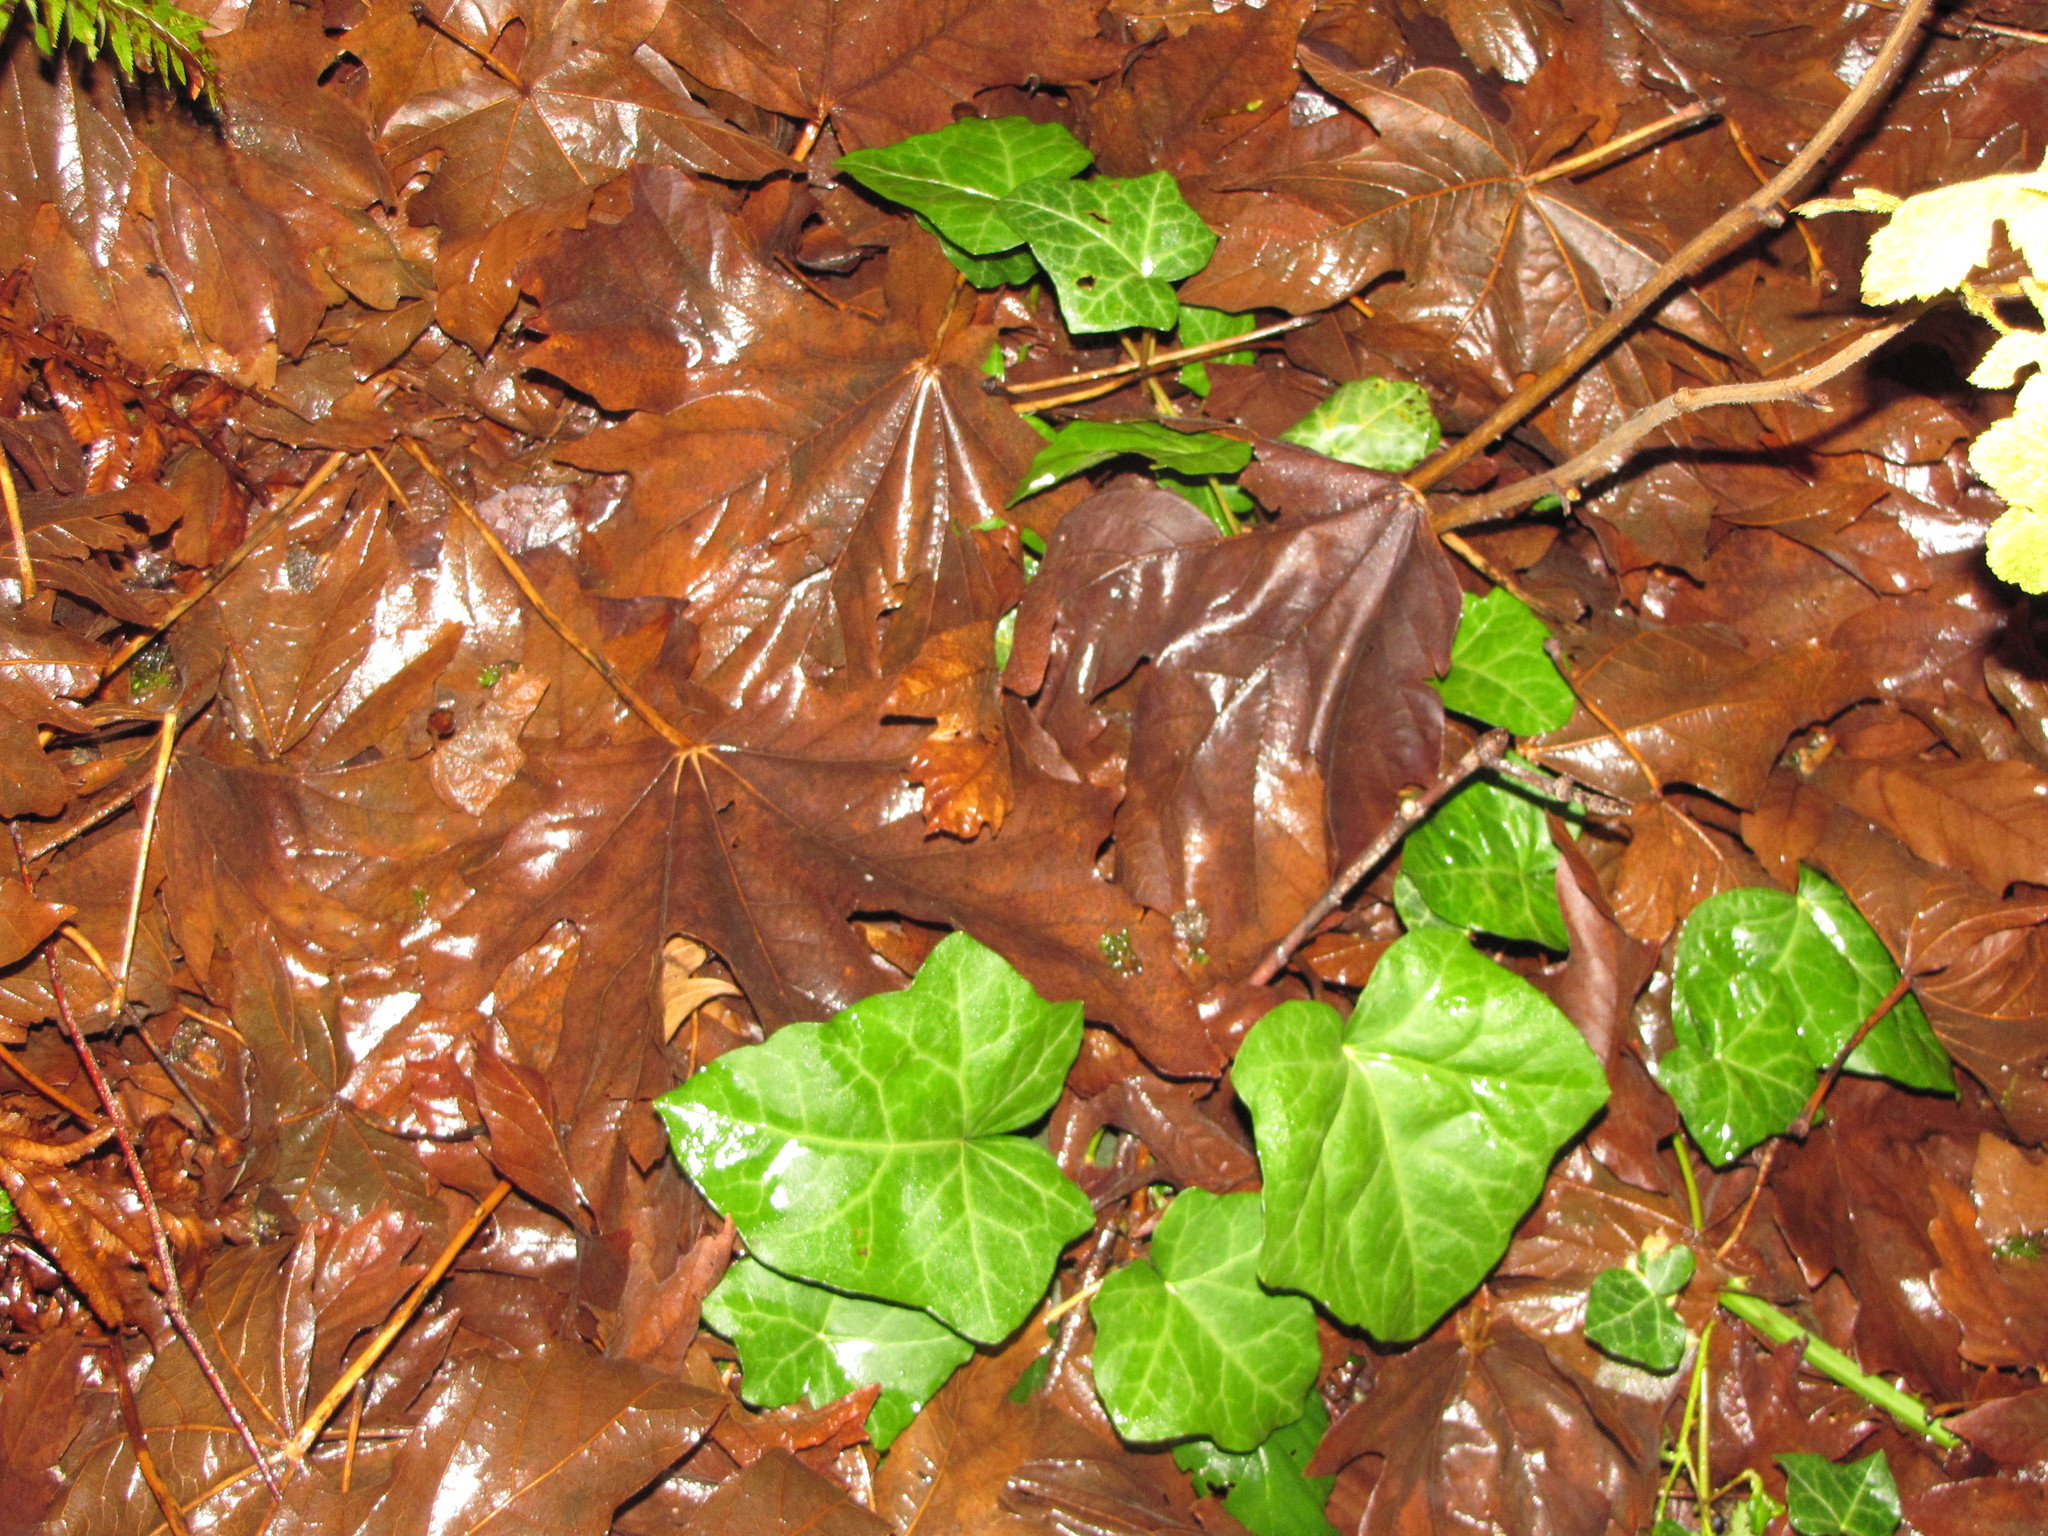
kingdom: Plantae
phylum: Tracheophyta
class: Magnoliopsida
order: Apiales
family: Araliaceae
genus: Hedera
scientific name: Hedera helix
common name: Ivy
